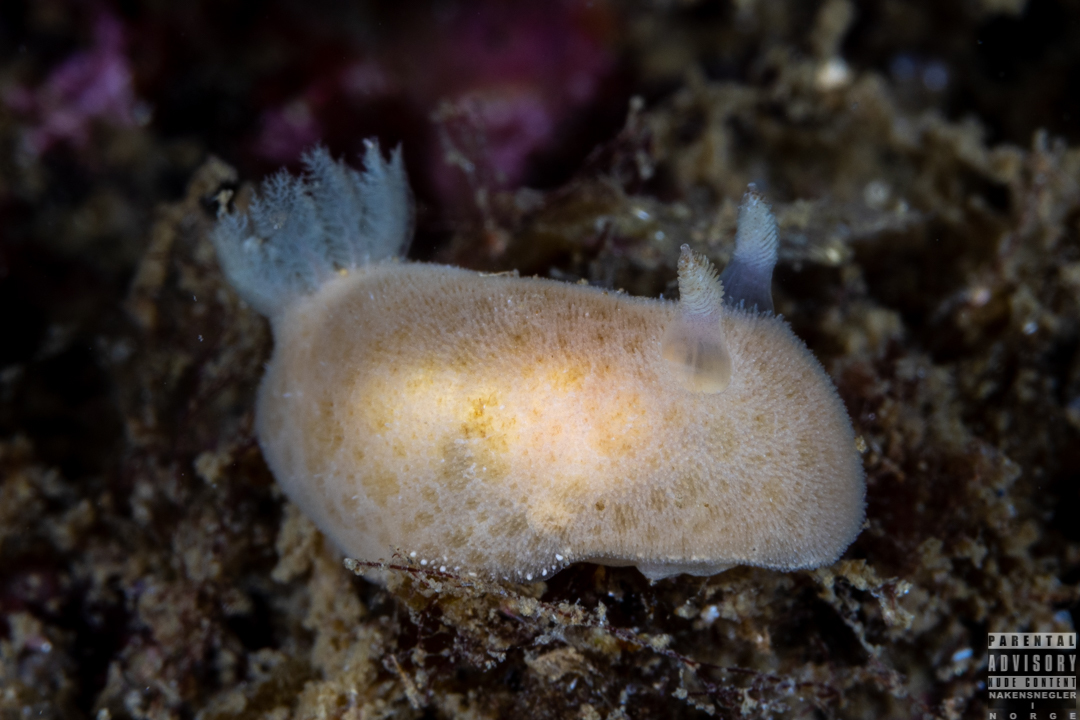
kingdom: Animalia
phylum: Mollusca
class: Gastropoda
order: Nudibranchia
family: Discodorididae
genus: Jorunna
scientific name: Jorunna tomentosa
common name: Grey sea slug
